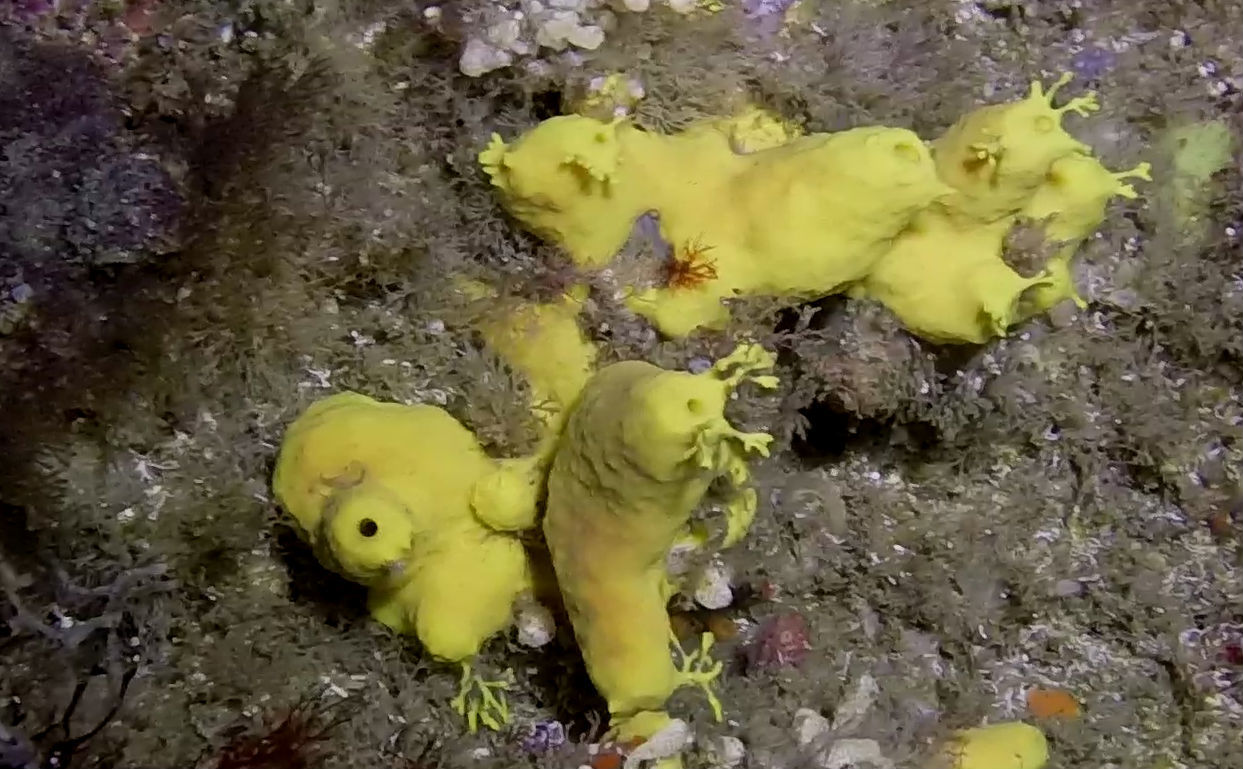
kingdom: Animalia
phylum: Porifera
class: Demospongiae
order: Verongiida
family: Aplysinidae
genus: Aiolochroia
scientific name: Aiolochroia thiona
